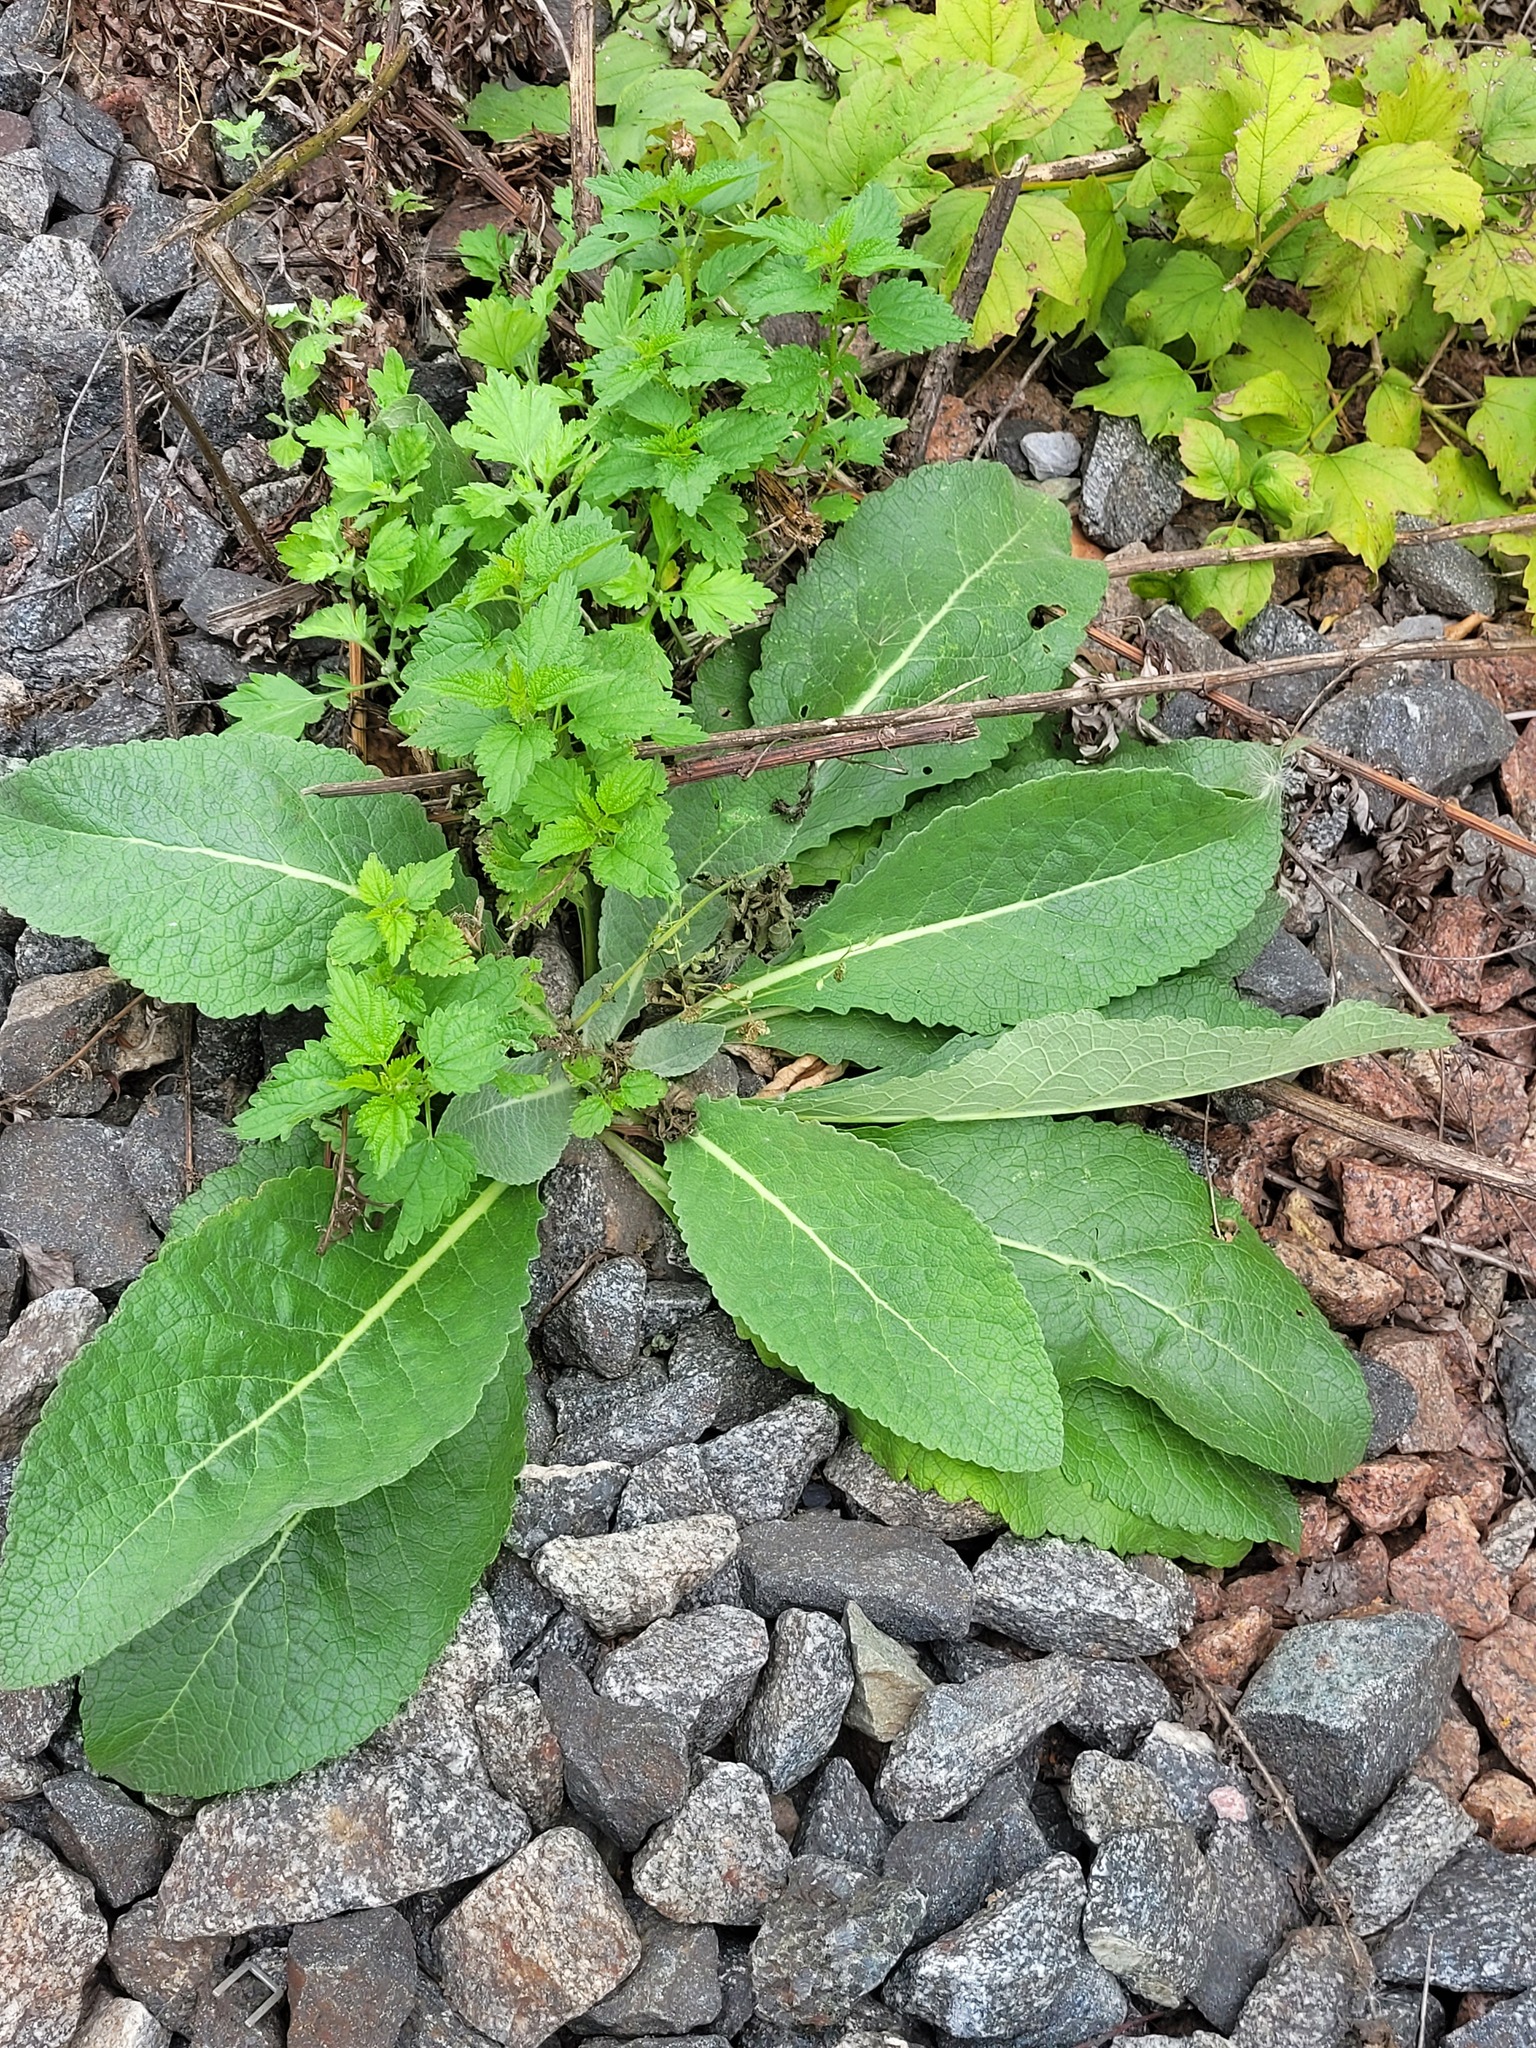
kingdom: Plantae
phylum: Tracheophyta
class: Magnoliopsida
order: Lamiales
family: Scrophulariaceae
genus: Verbascum
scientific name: Verbascum lychnitis
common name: White mullein
